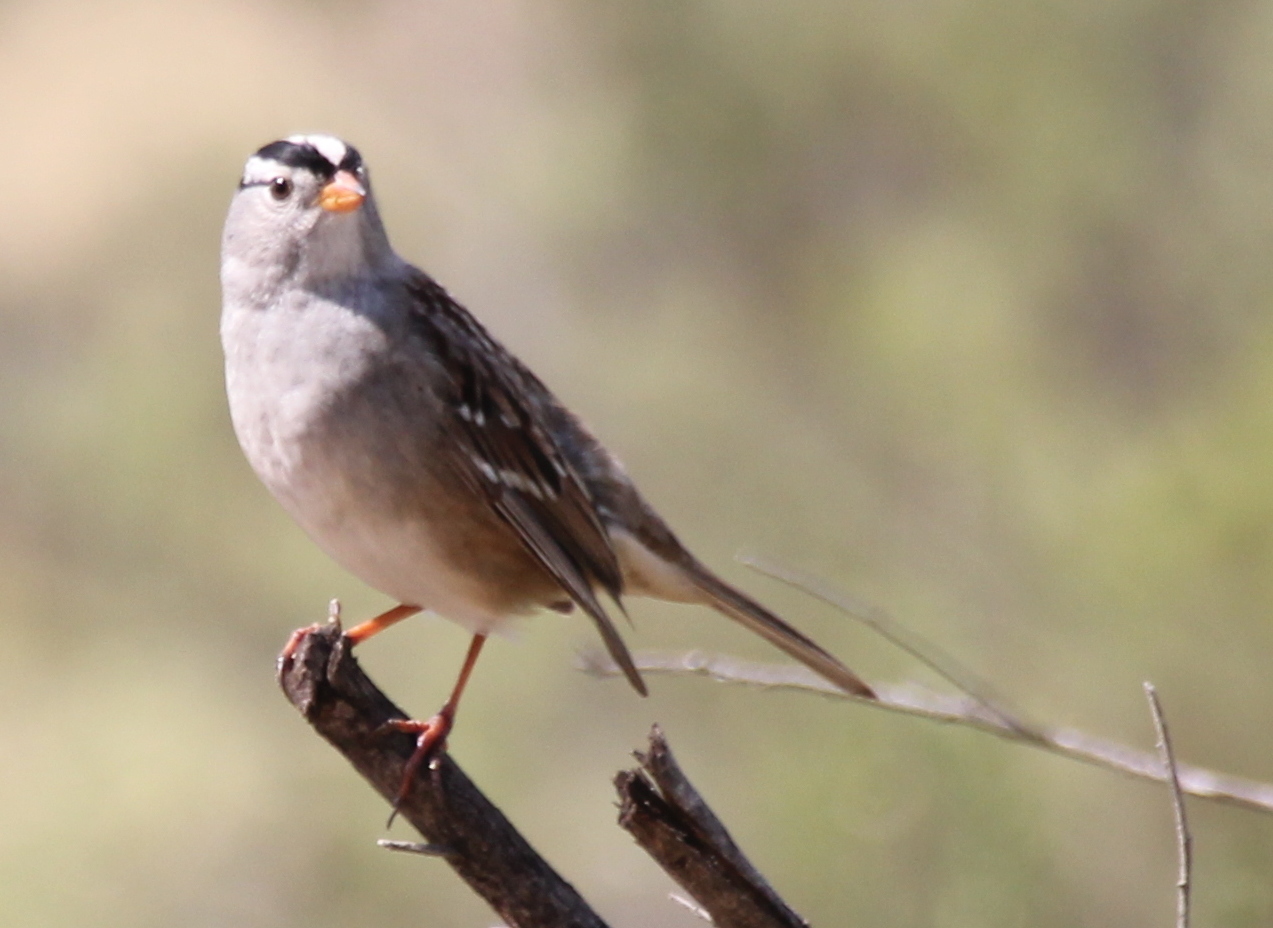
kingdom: Animalia
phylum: Chordata
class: Aves
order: Passeriformes
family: Passerellidae
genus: Zonotrichia
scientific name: Zonotrichia leucophrys
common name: White-crowned sparrow
